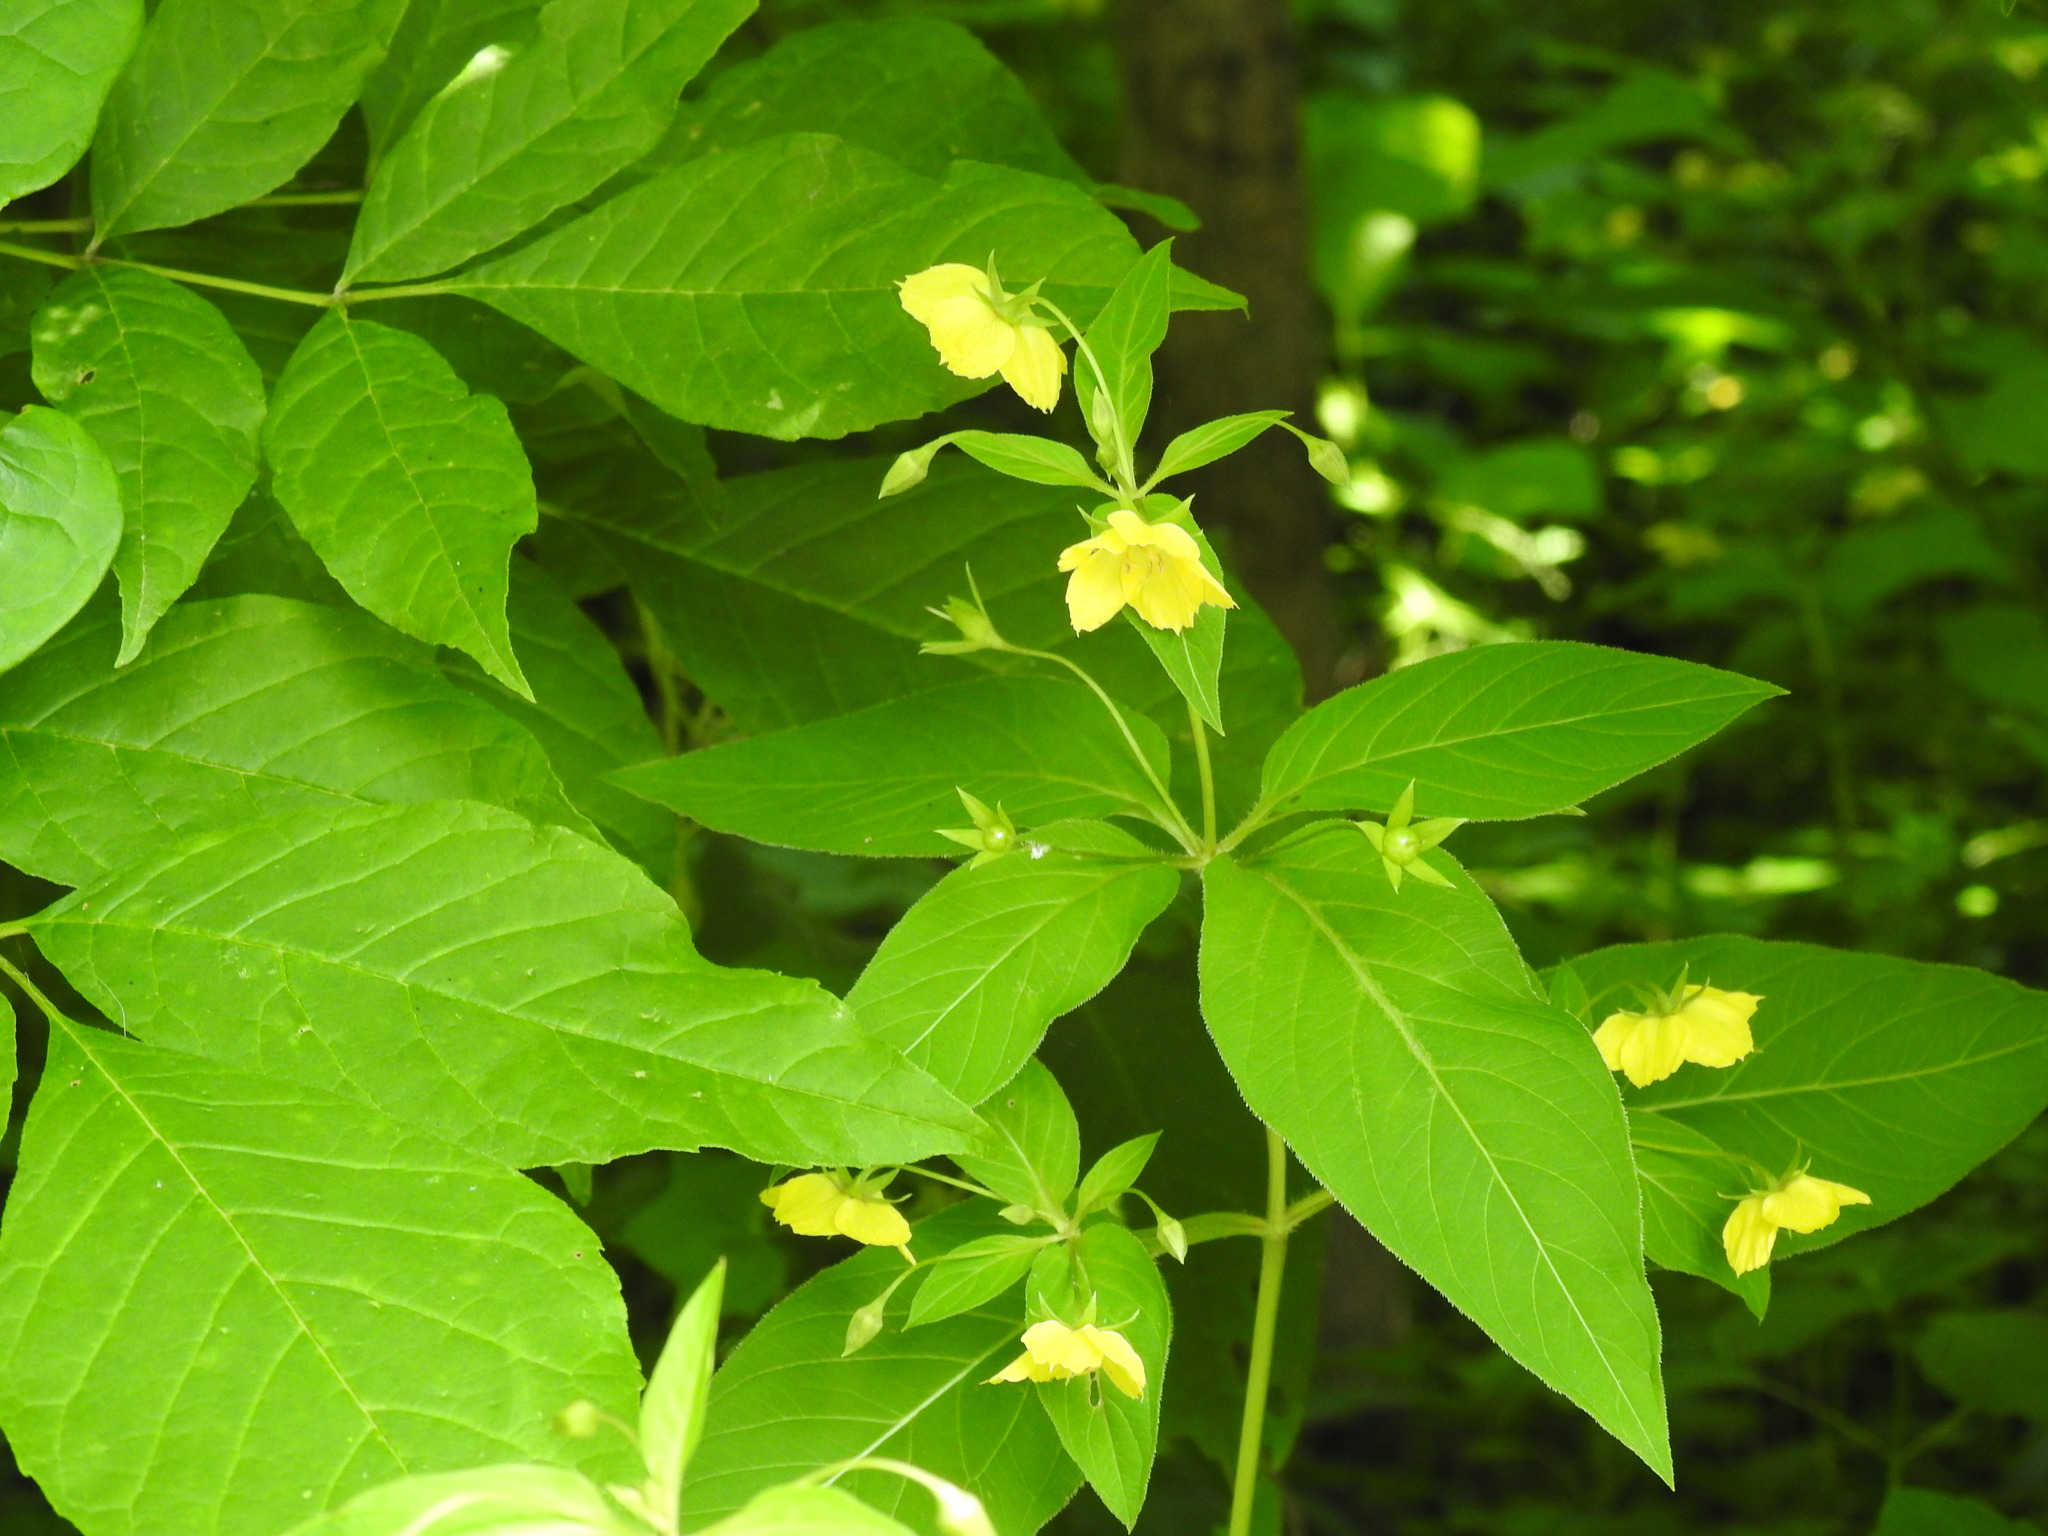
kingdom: Plantae
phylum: Tracheophyta
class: Magnoliopsida
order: Ericales
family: Primulaceae
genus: Lysimachia
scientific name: Lysimachia ciliata
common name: Fringed loosestrife
